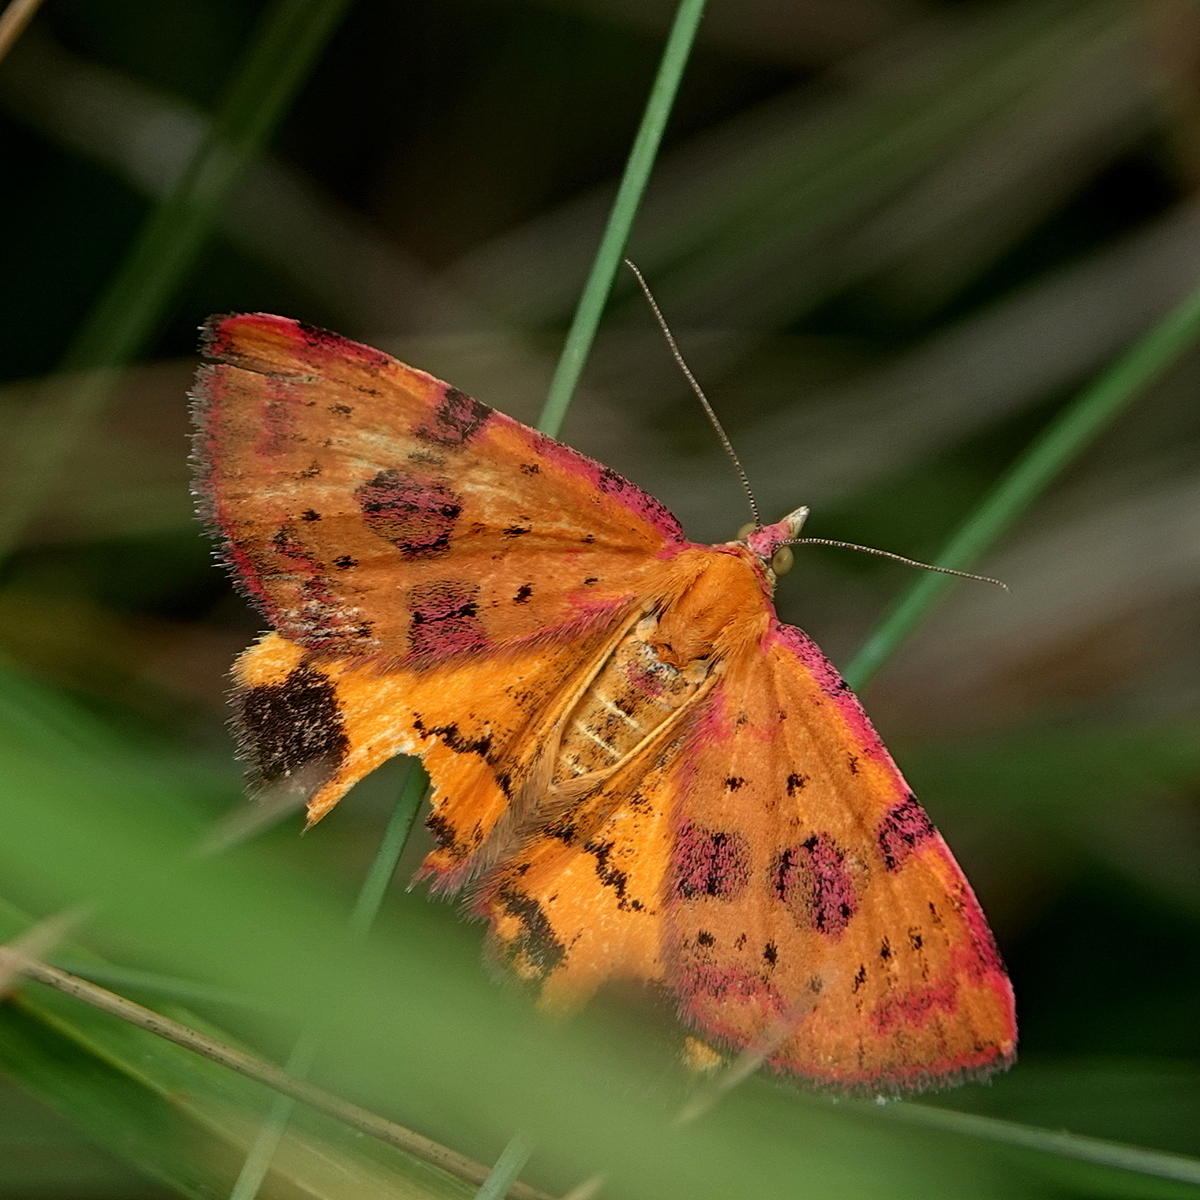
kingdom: Animalia
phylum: Arthropoda
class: Insecta
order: Lepidoptera
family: Geometridae
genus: Chrysolarentia
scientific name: Chrysolarentia perornata
